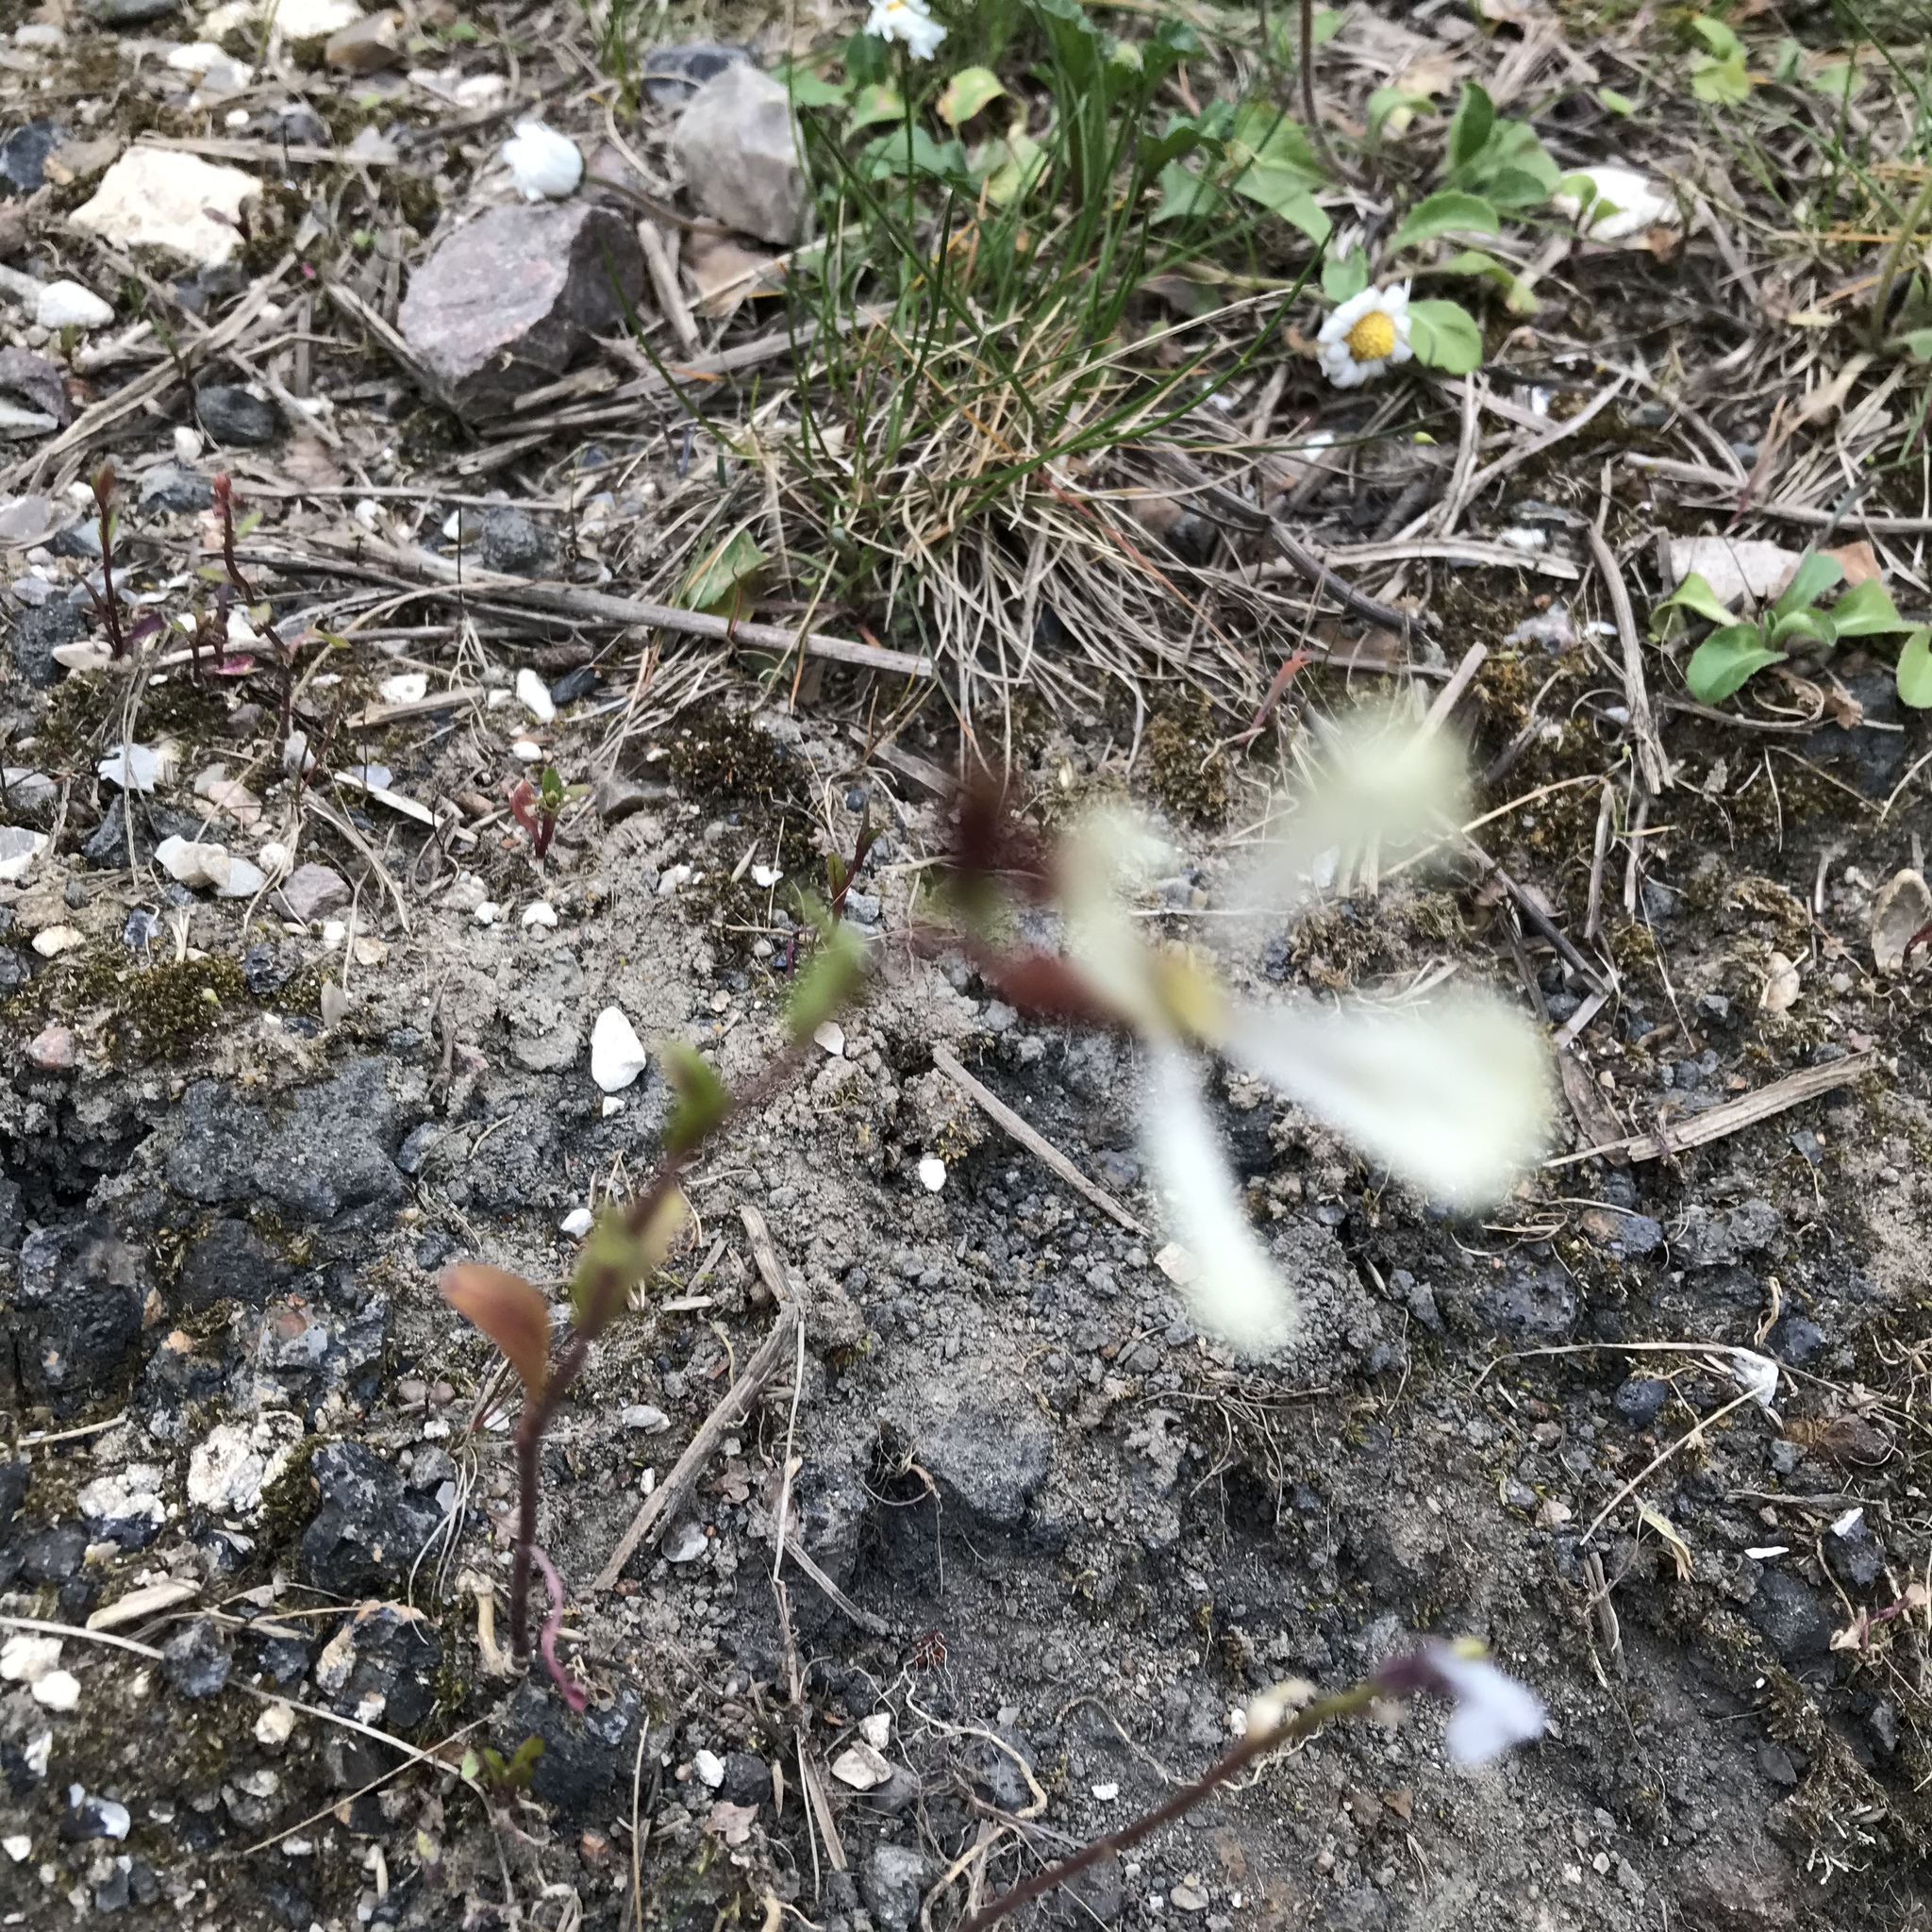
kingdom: Plantae
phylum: Tracheophyta
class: Magnoliopsida
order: Brassicales
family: Brassicaceae
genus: Eruca
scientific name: Eruca vesicaria
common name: Garden rocket
